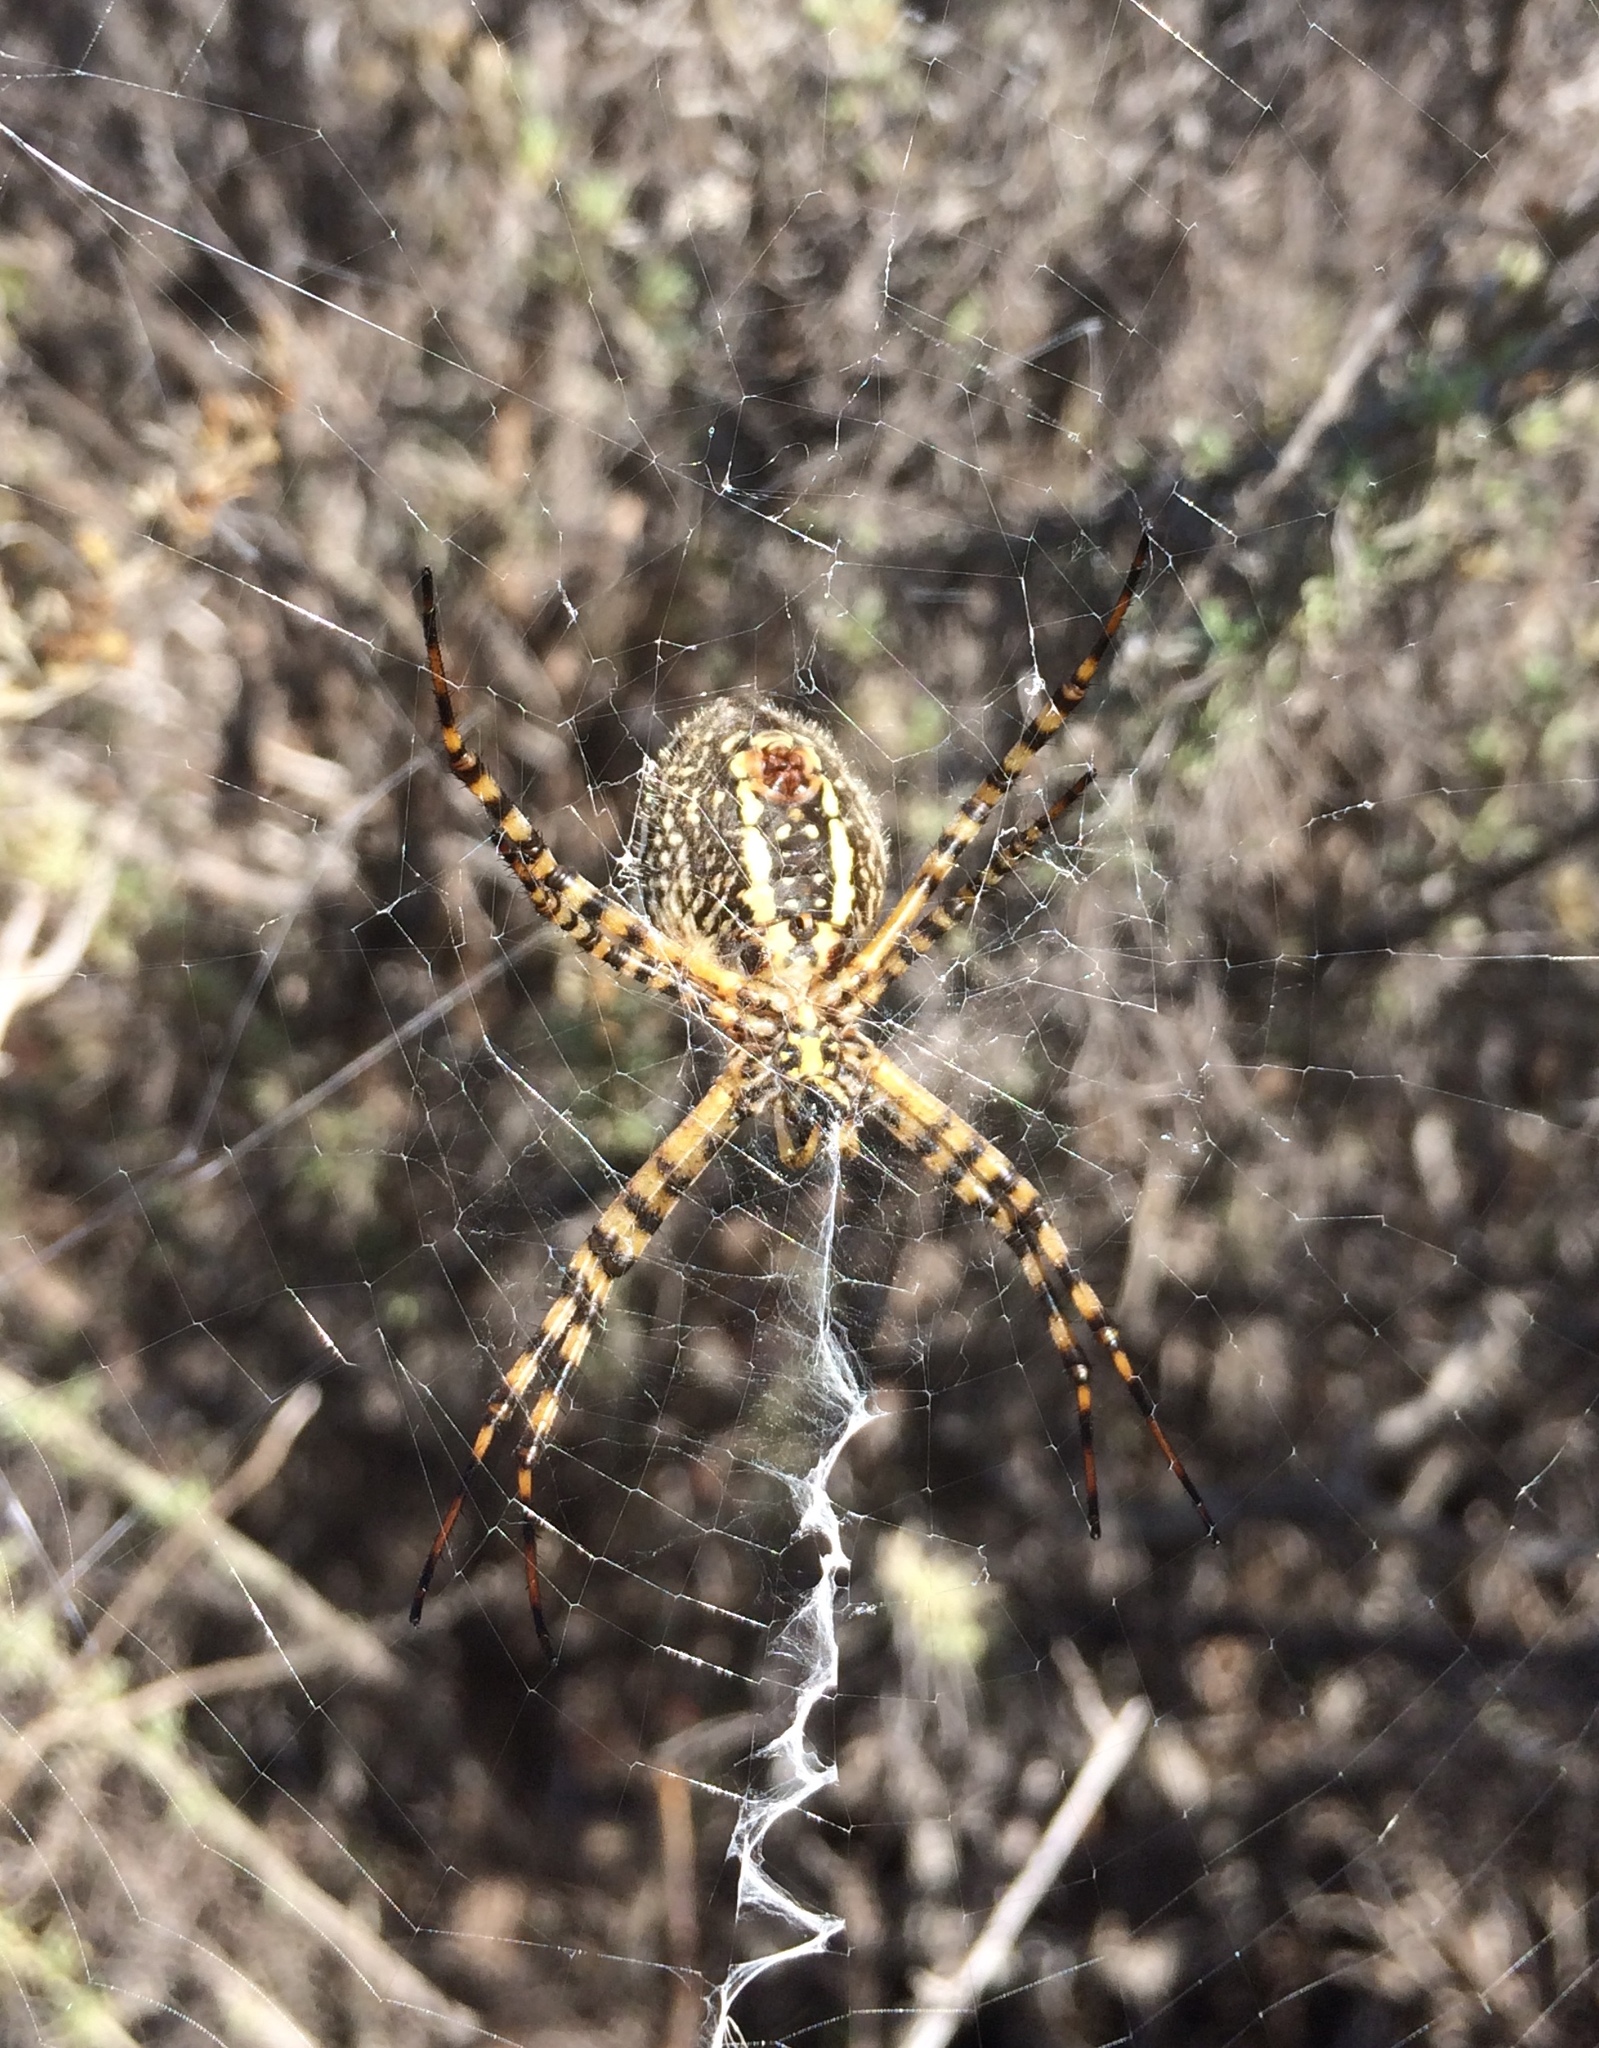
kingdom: Animalia
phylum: Arthropoda
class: Arachnida
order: Araneae
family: Araneidae
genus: Argiope
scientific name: Argiope trifasciata
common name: Banded garden spider
